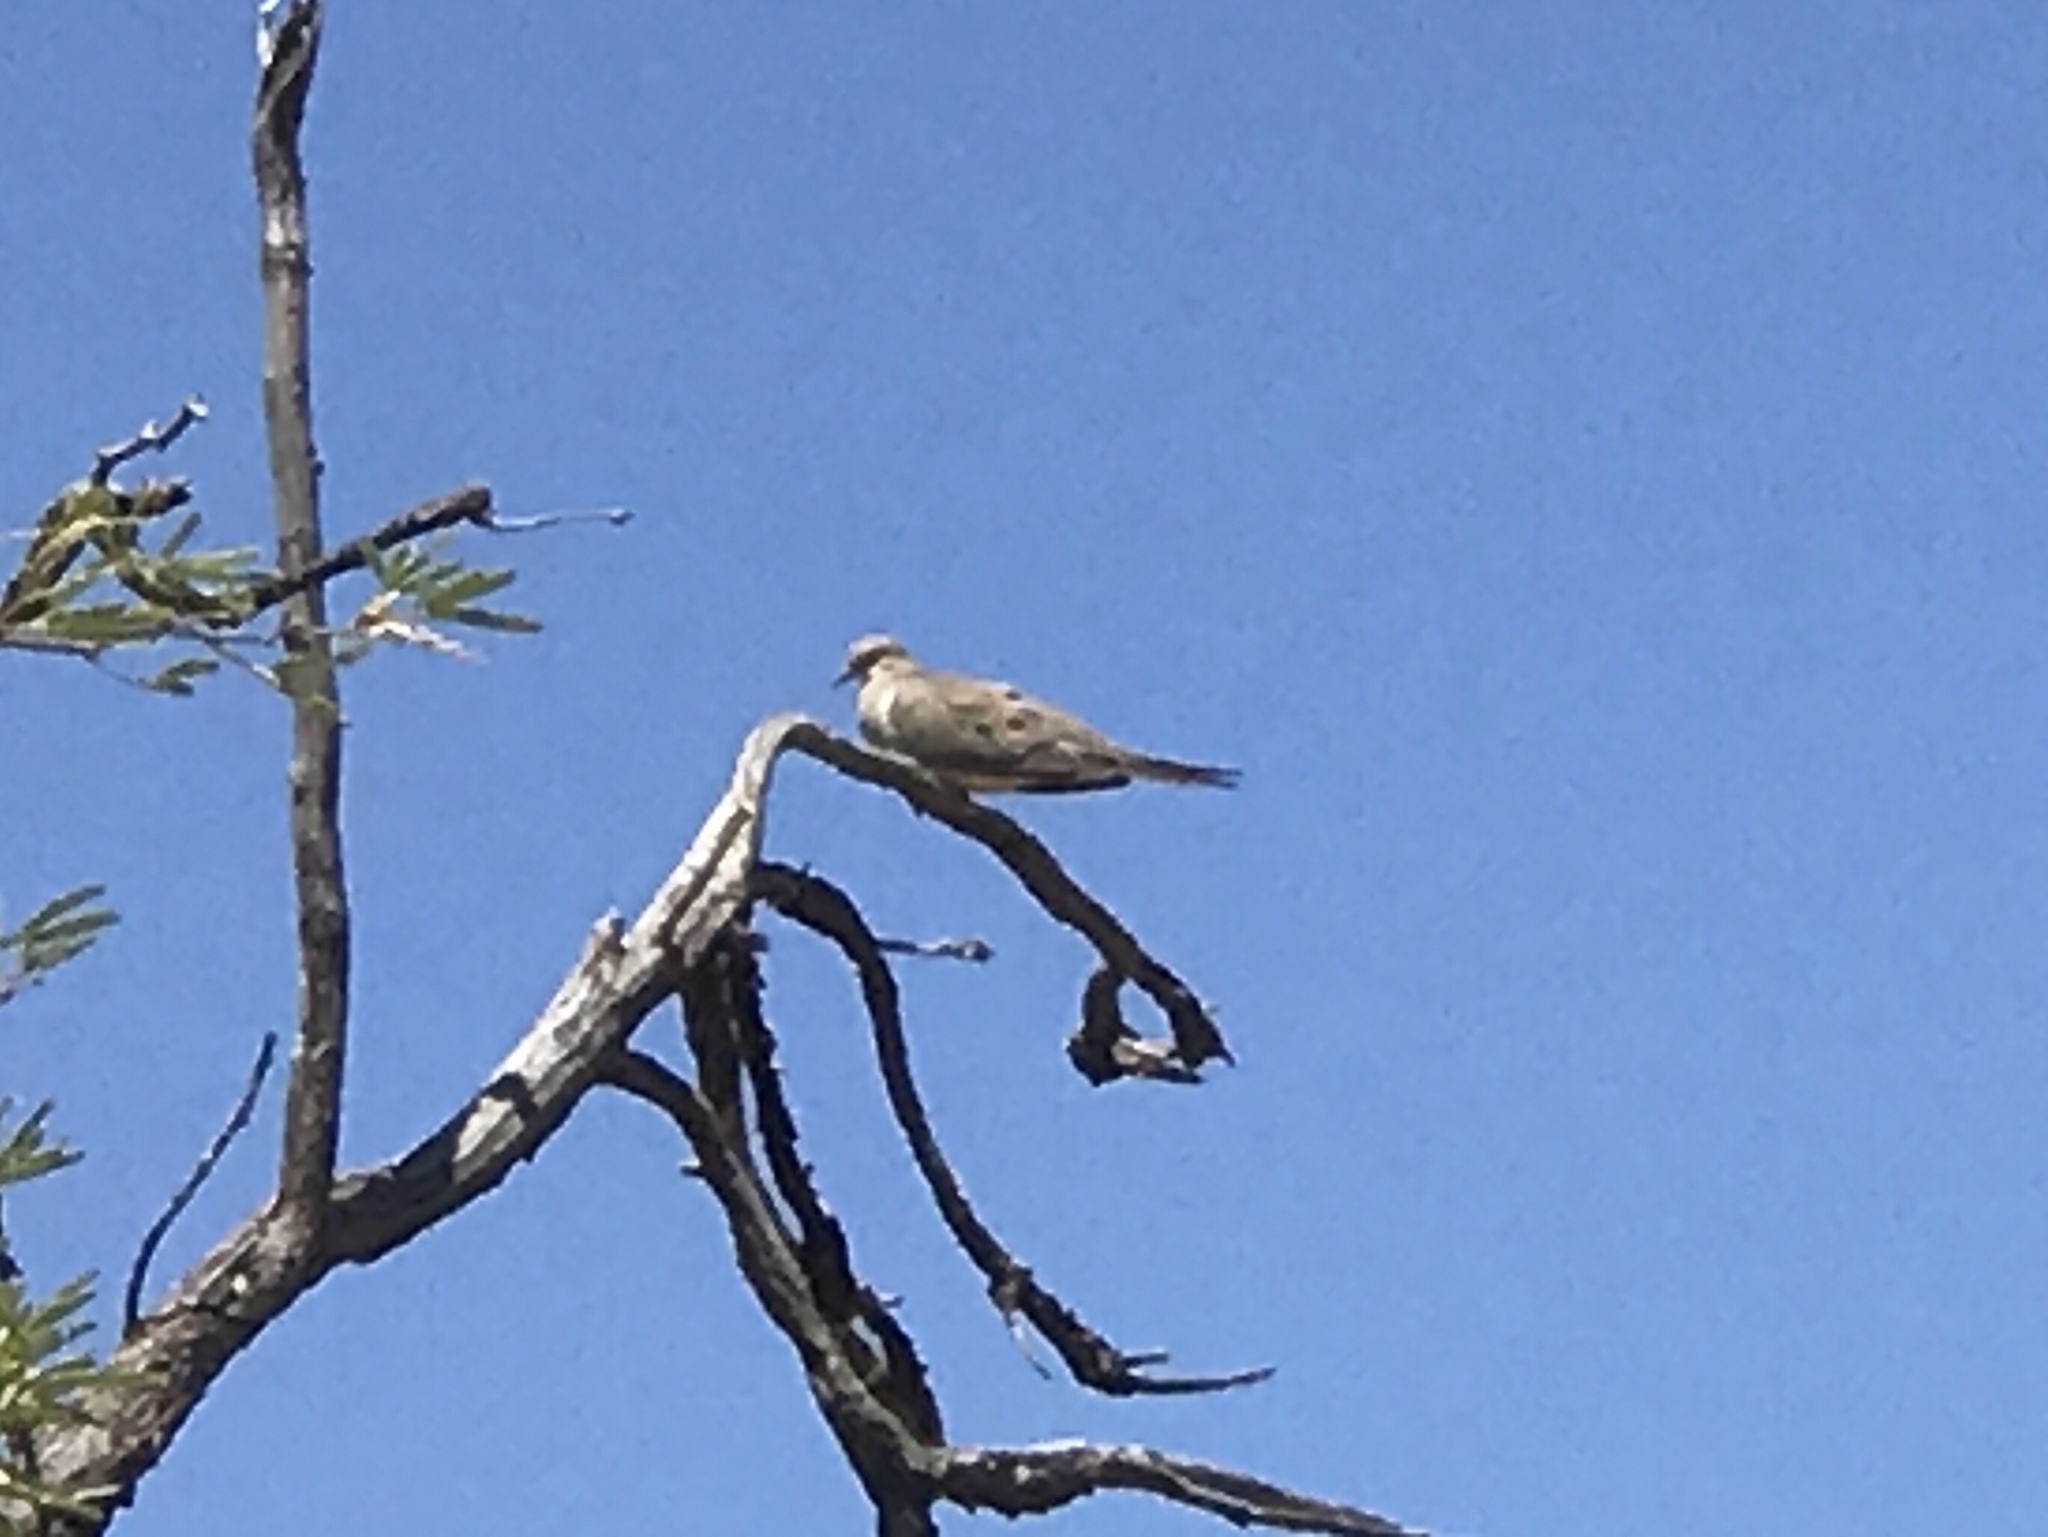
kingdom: Animalia
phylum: Chordata
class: Aves
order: Columbiformes
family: Columbidae
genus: Zenaida
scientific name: Zenaida macroura
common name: Mourning dove
